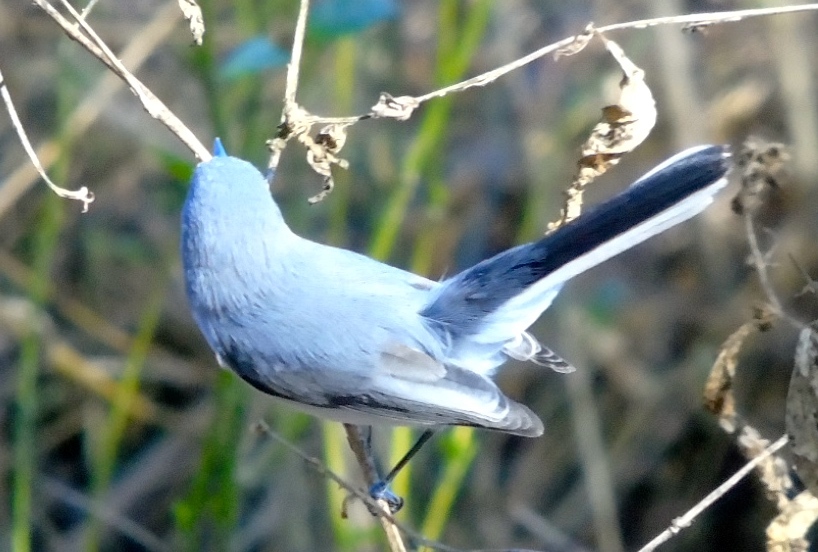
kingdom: Animalia
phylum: Chordata
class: Aves
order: Passeriformes
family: Polioptilidae
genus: Polioptila
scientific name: Polioptila caerulea
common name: Blue-gray gnatcatcher
